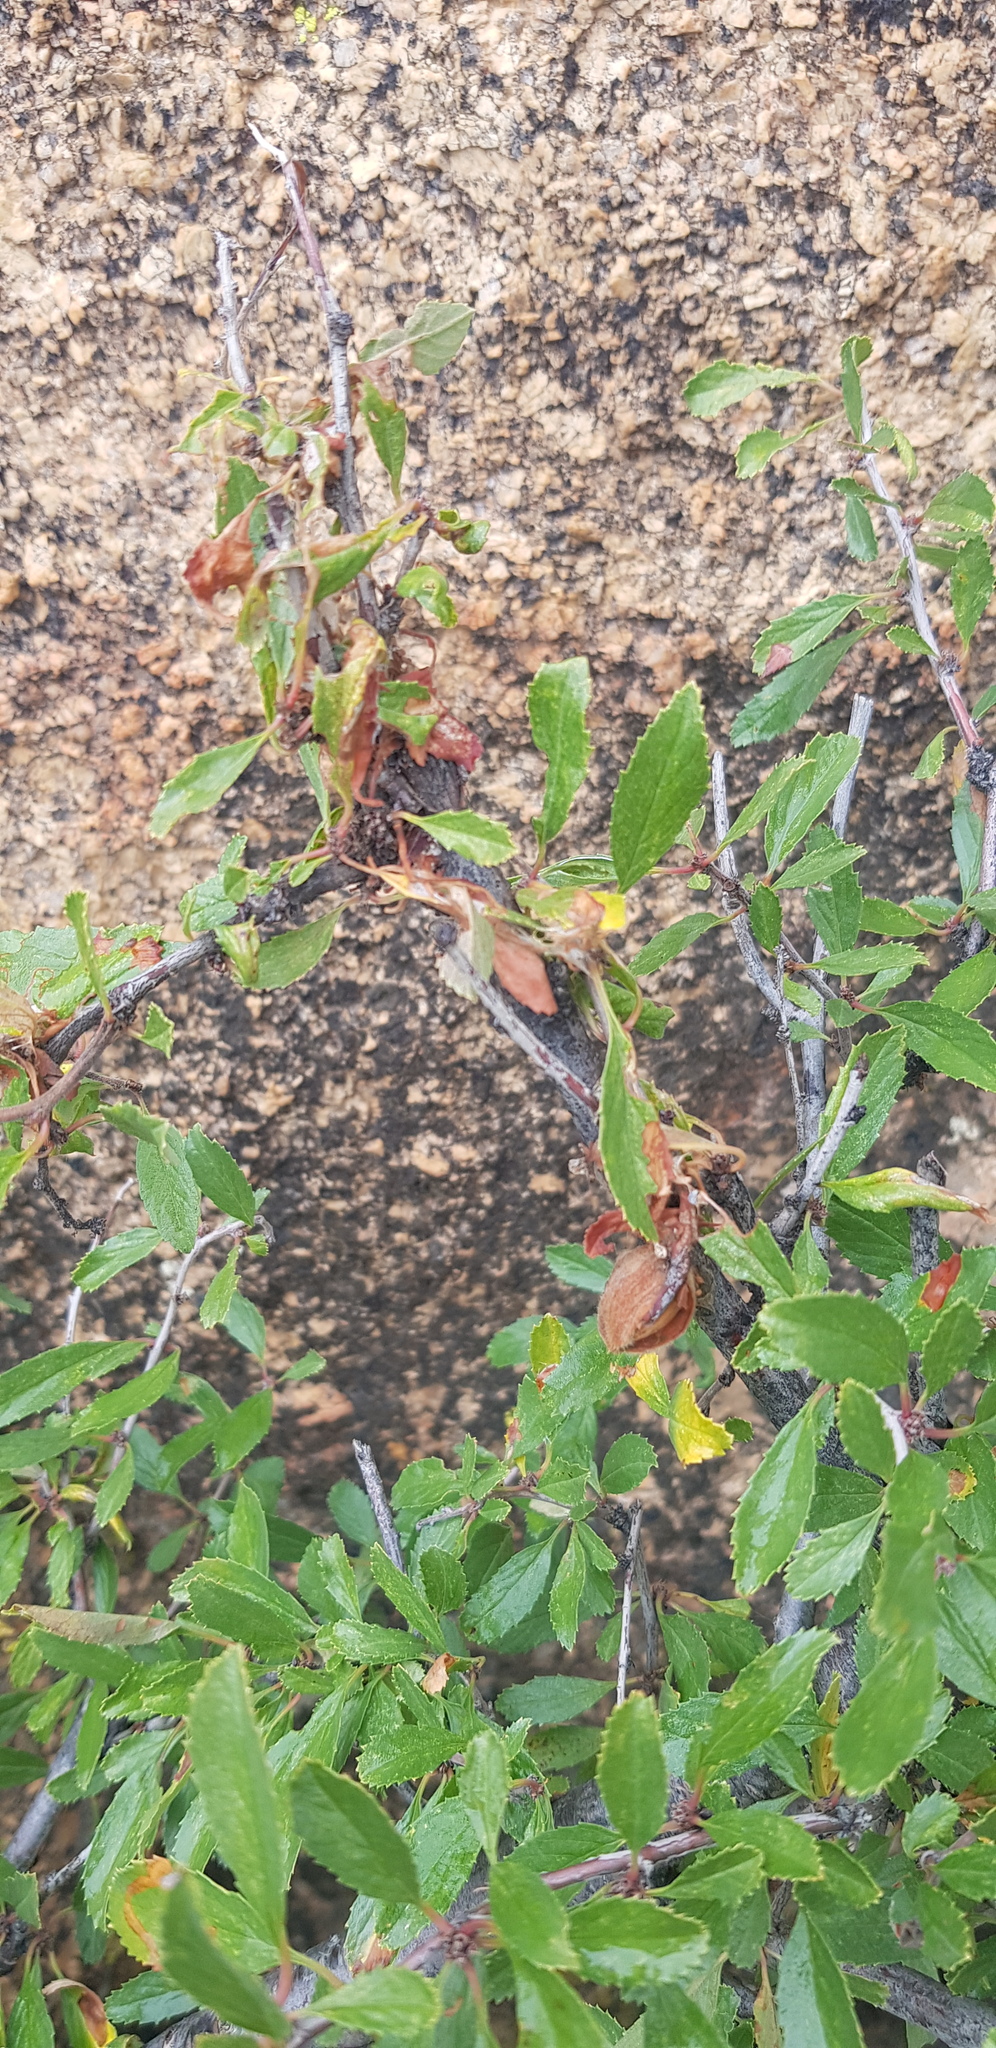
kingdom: Plantae
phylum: Tracheophyta
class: Magnoliopsida
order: Rosales
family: Rosaceae
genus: Prunus
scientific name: Prunus pedunculata
